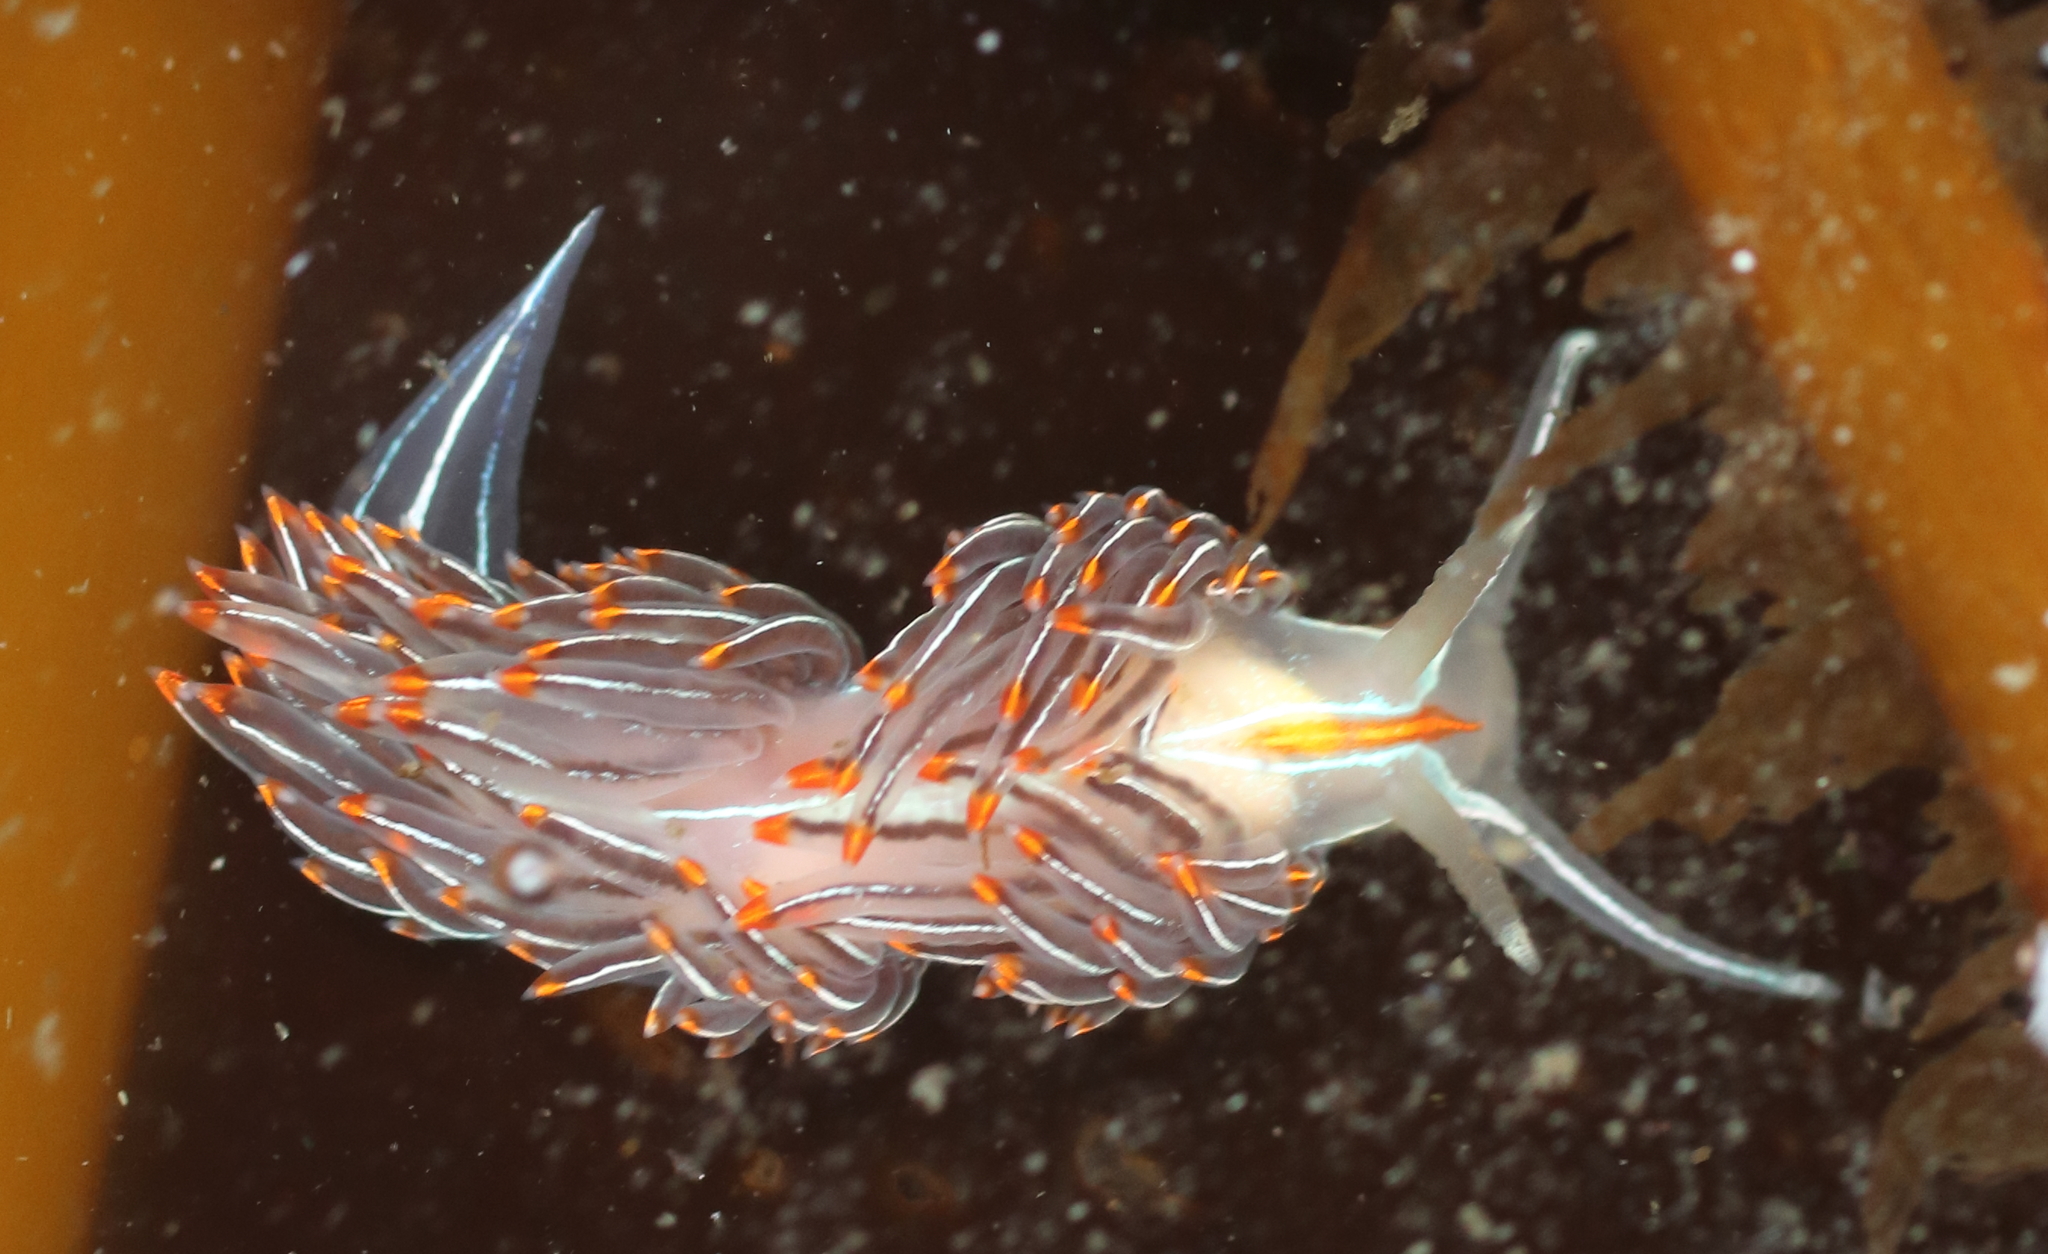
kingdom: Animalia
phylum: Mollusca
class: Gastropoda
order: Nudibranchia
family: Myrrhinidae
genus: Hermissenda
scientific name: Hermissenda crassicornis
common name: Hermissenda
